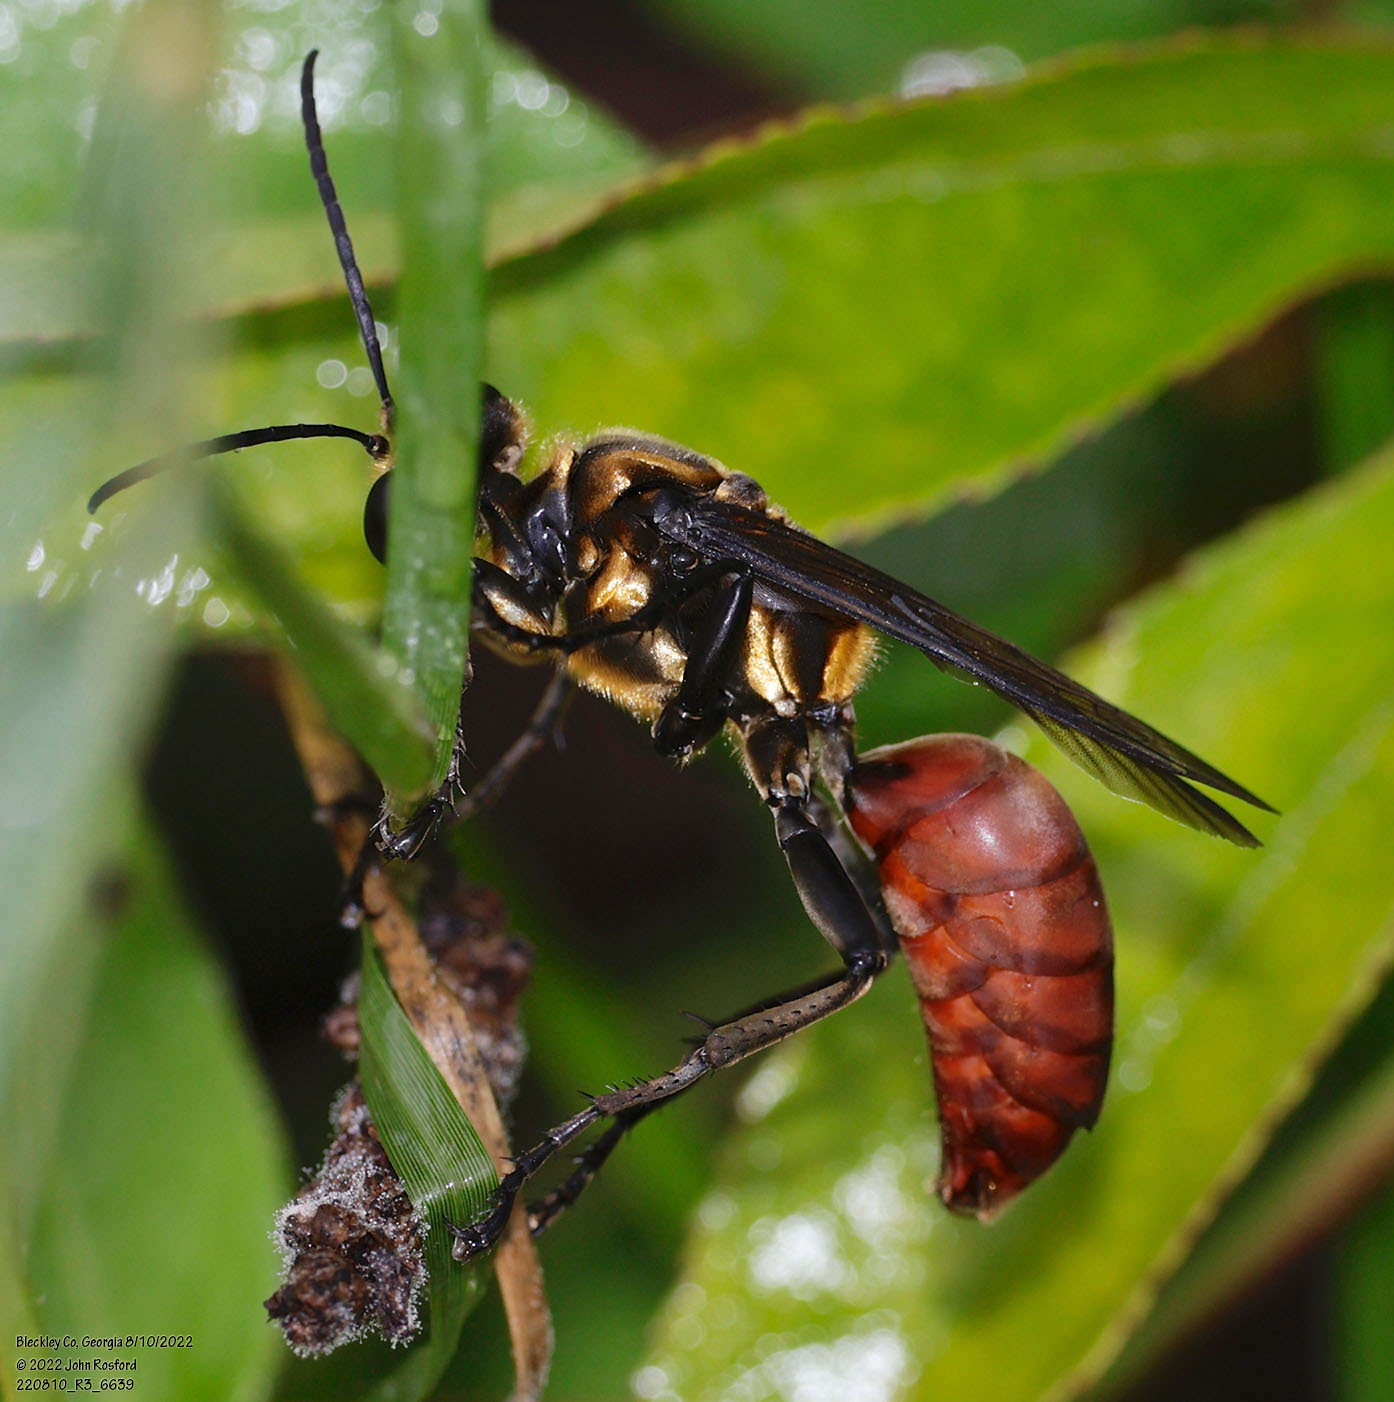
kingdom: Animalia
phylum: Arthropoda
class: Insecta
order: Hymenoptera
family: Sphecidae
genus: Sphex
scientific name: Sphex habenus
